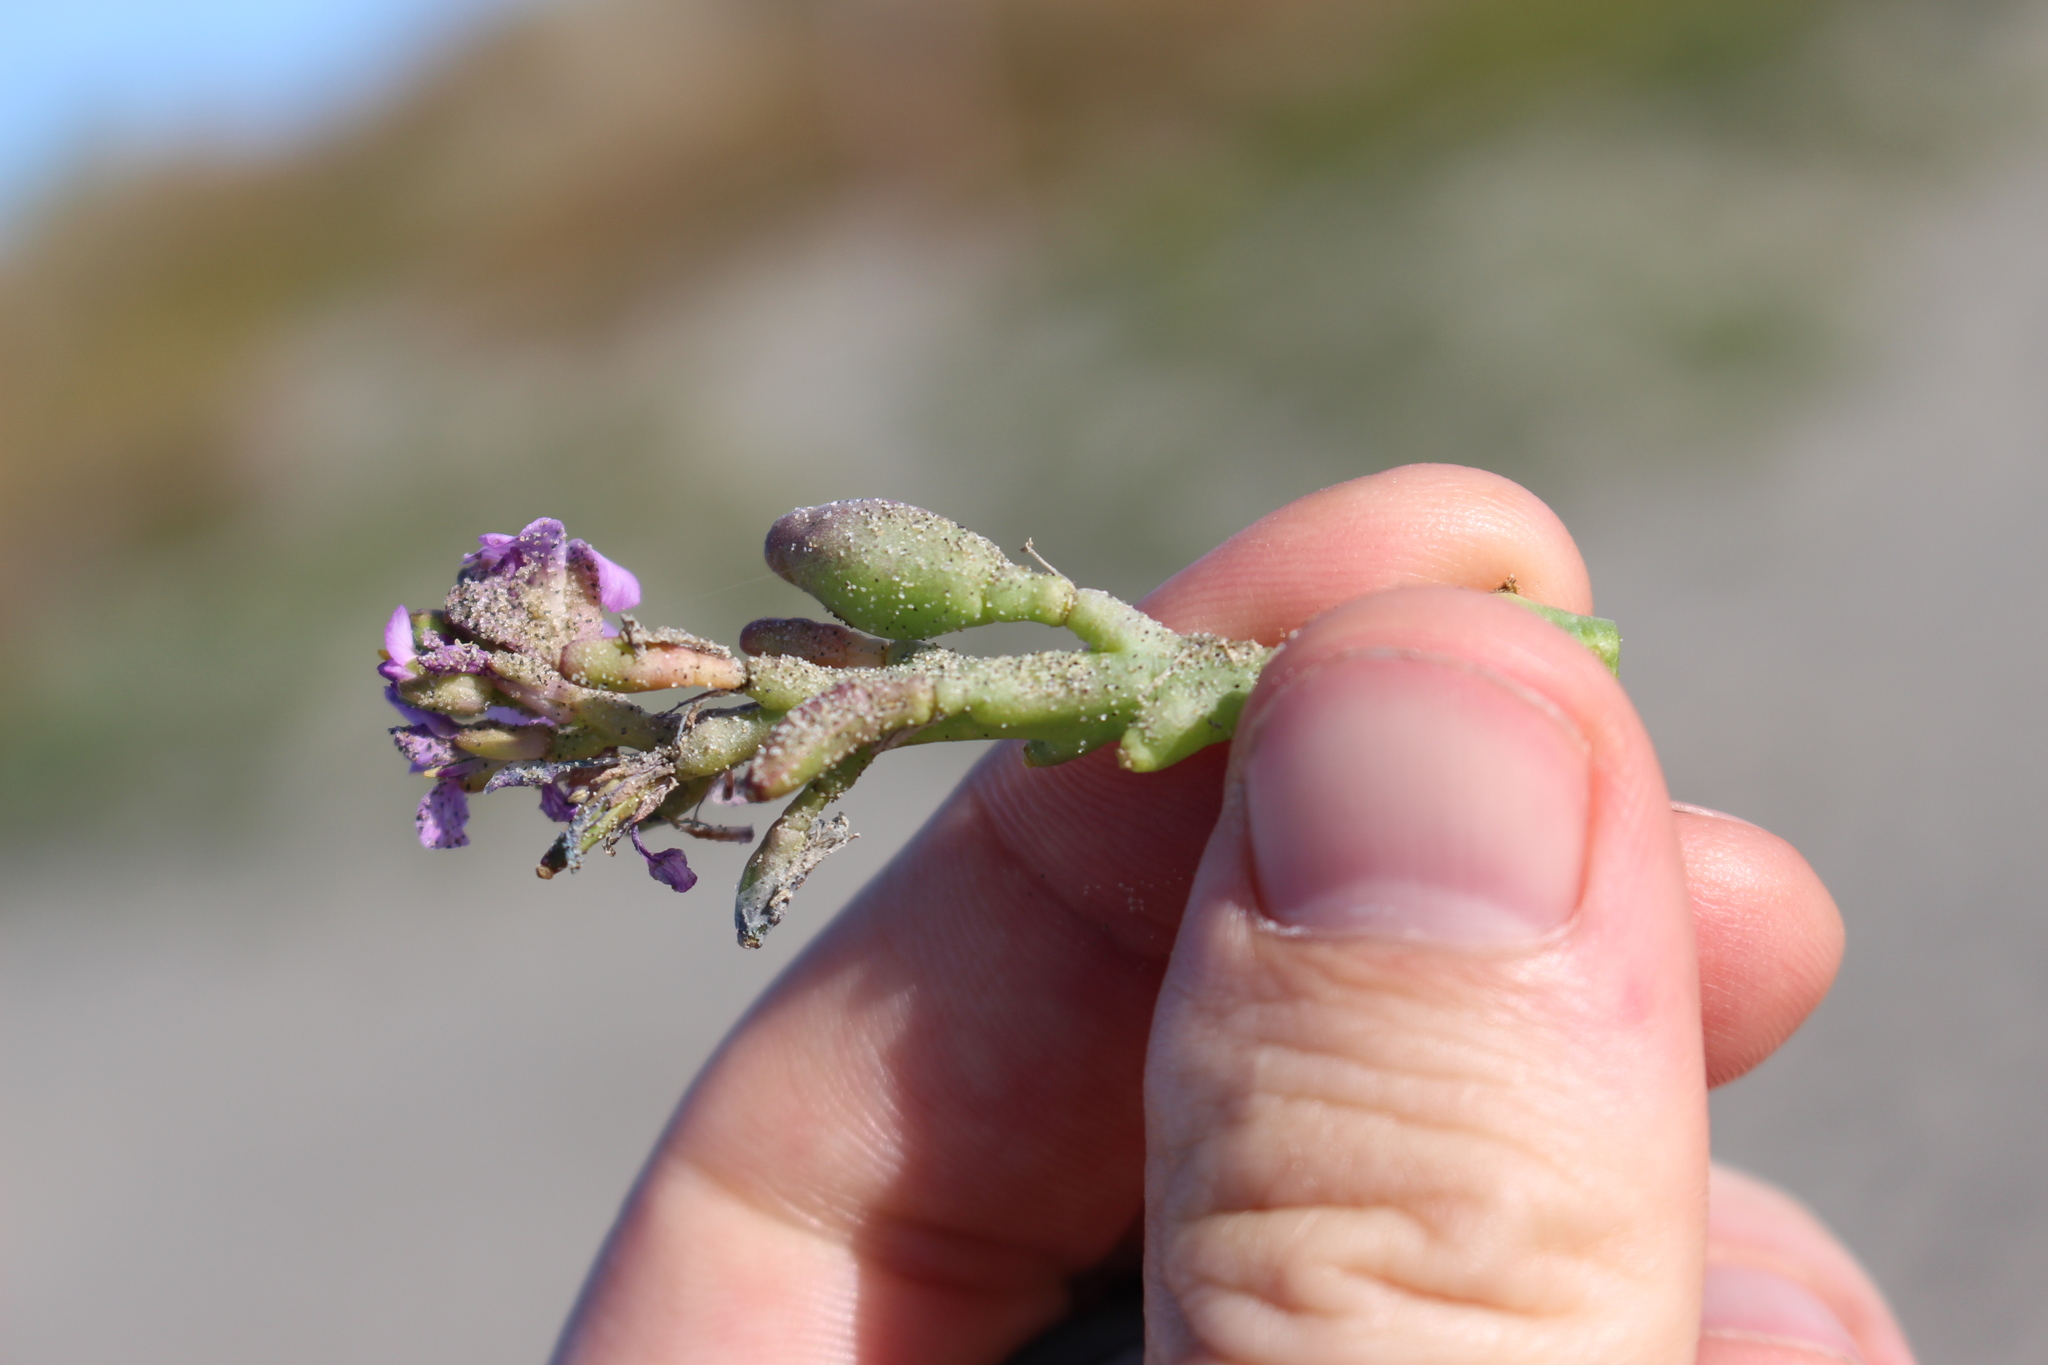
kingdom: Plantae
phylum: Tracheophyta
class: Magnoliopsida
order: Brassicales
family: Brassicaceae
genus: Cakile
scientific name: Cakile edentula
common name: American sea rocket
